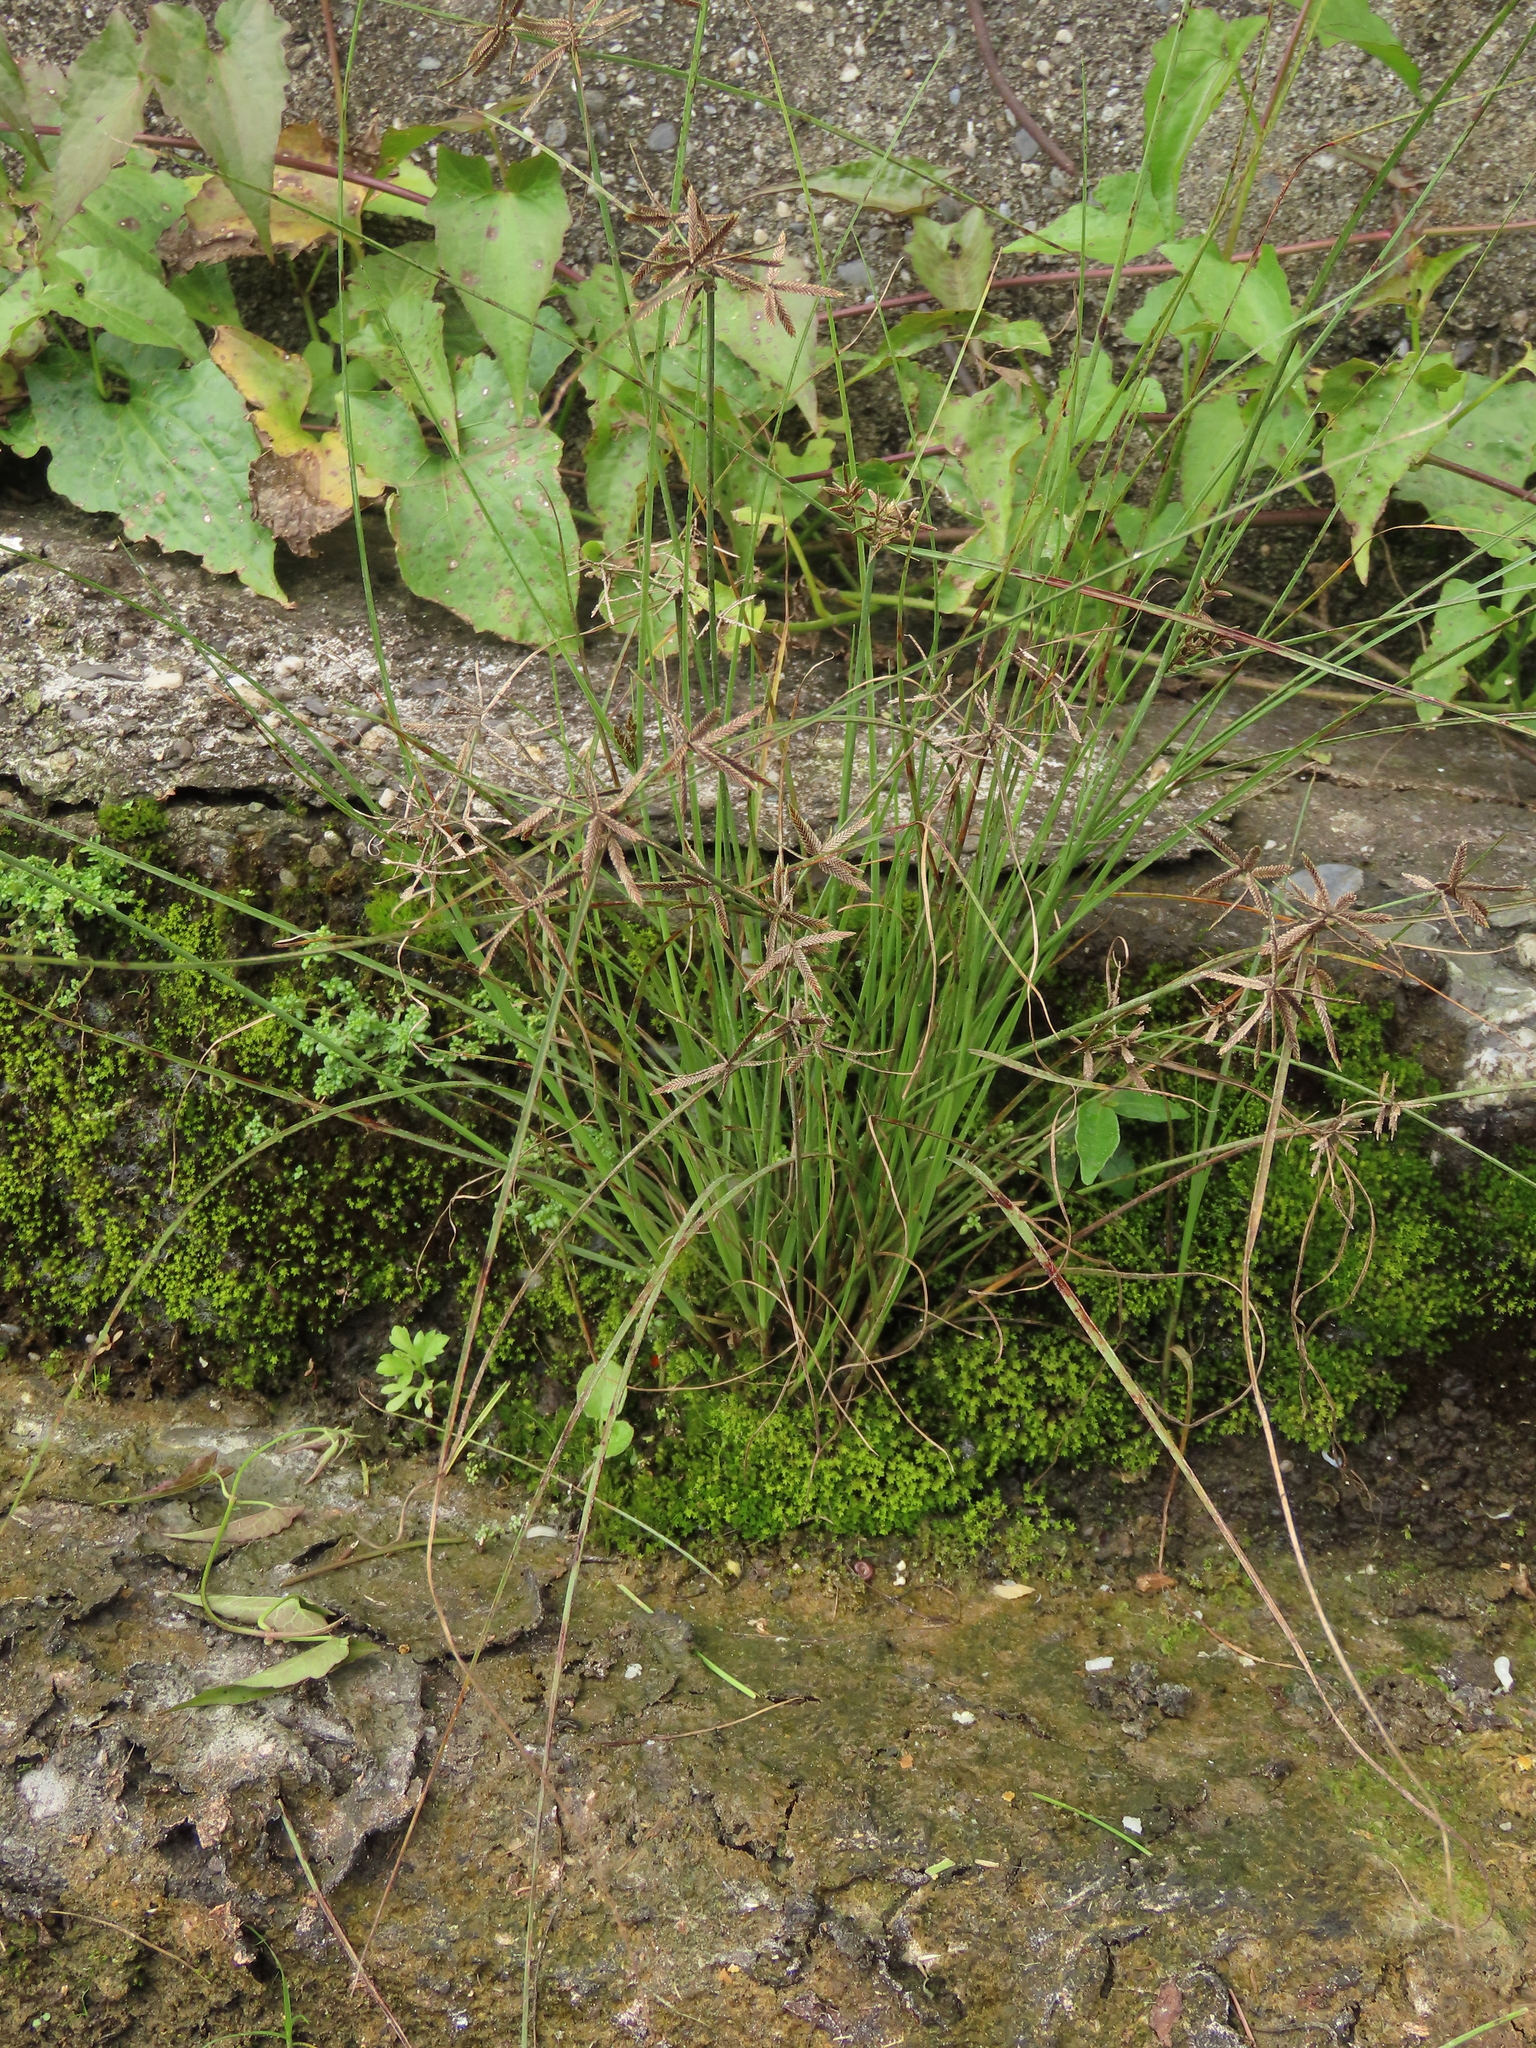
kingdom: Plantae
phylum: Tracheophyta
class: Liliopsida
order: Poales
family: Cyperaceae
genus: Cyperus
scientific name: Cyperus flavidus
